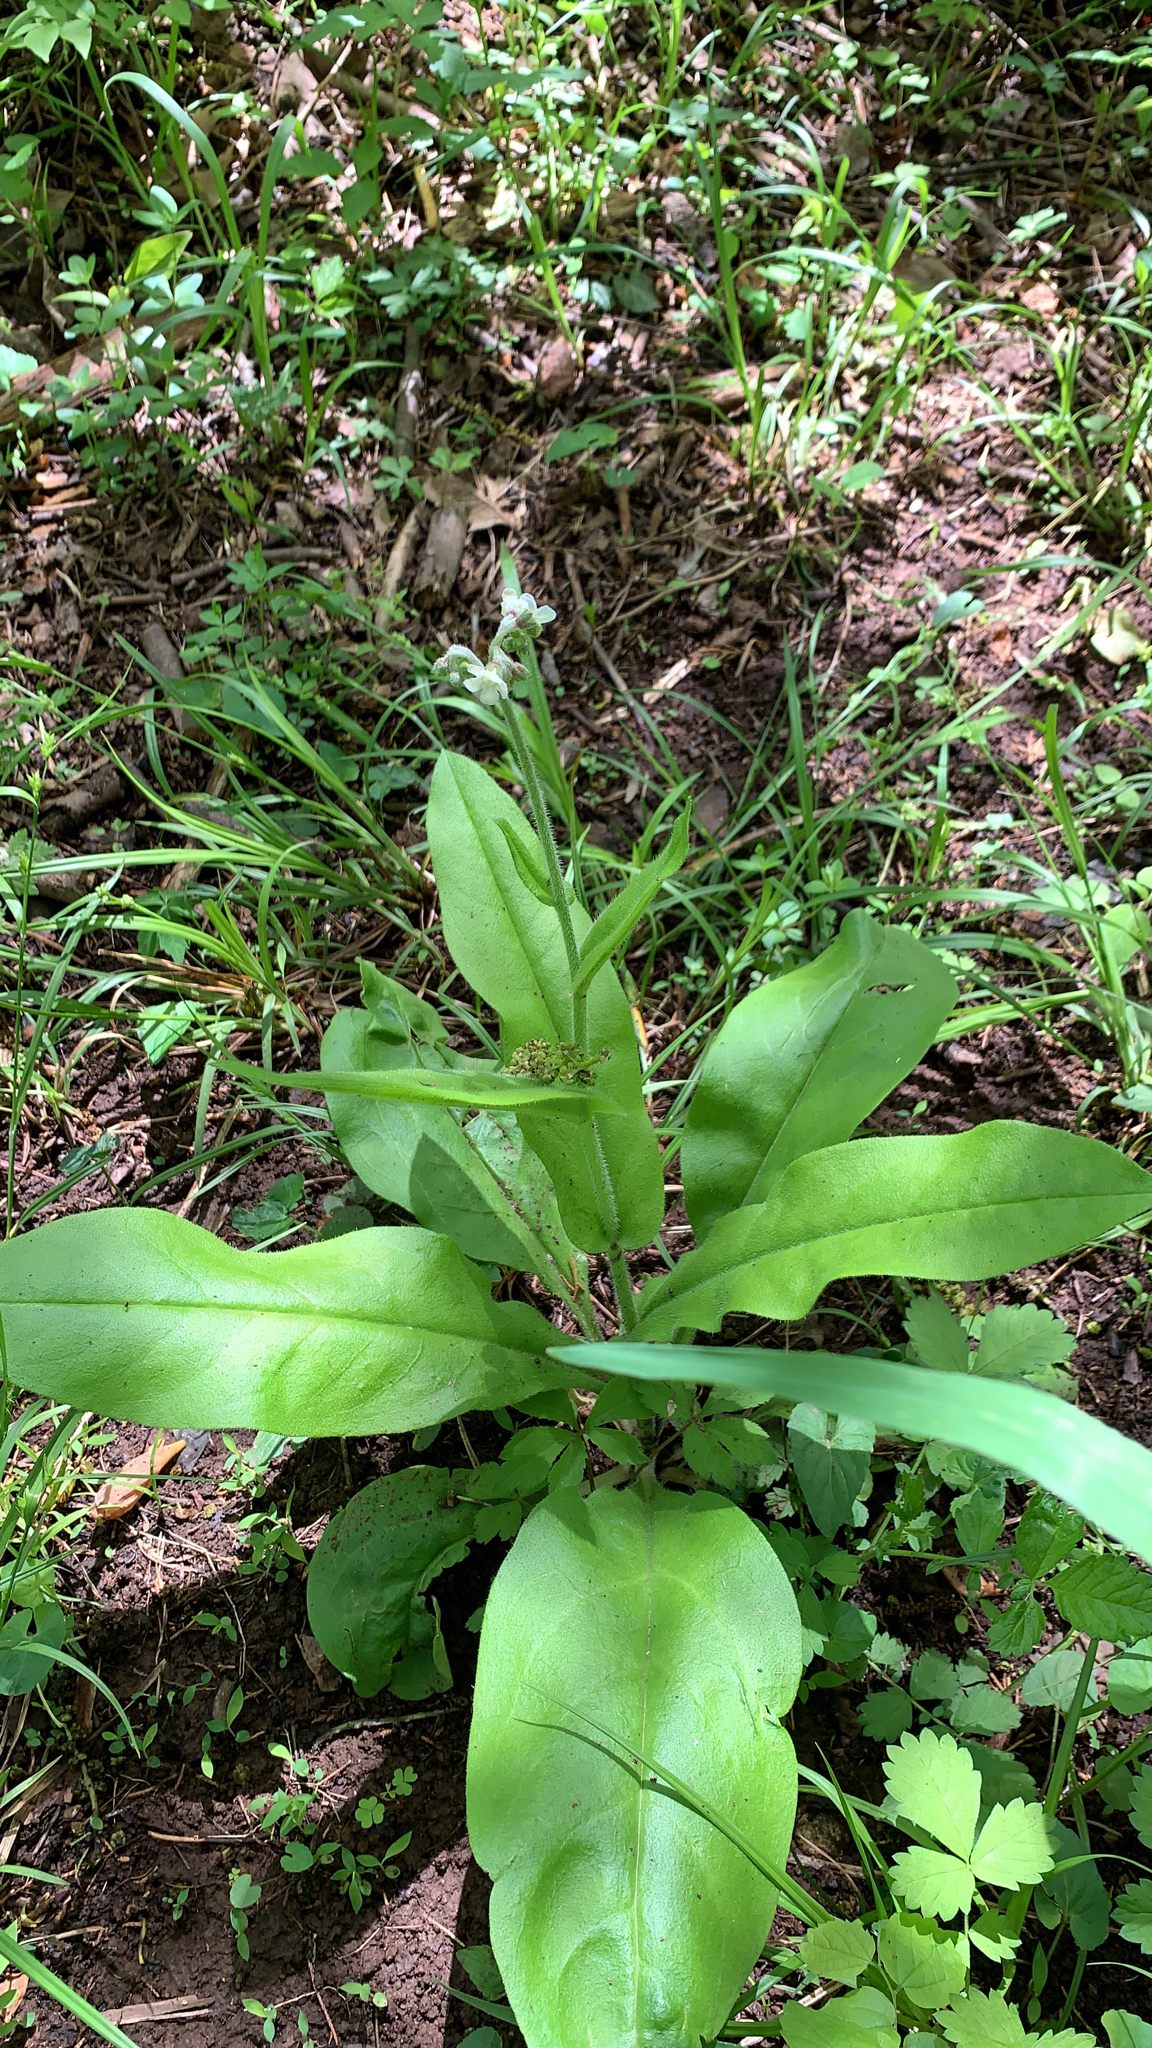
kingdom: Plantae
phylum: Tracheophyta
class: Magnoliopsida
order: Boraginales
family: Boraginaceae
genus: Andersonglossum
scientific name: Andersonglossum virginianum
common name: Wild comfrey
